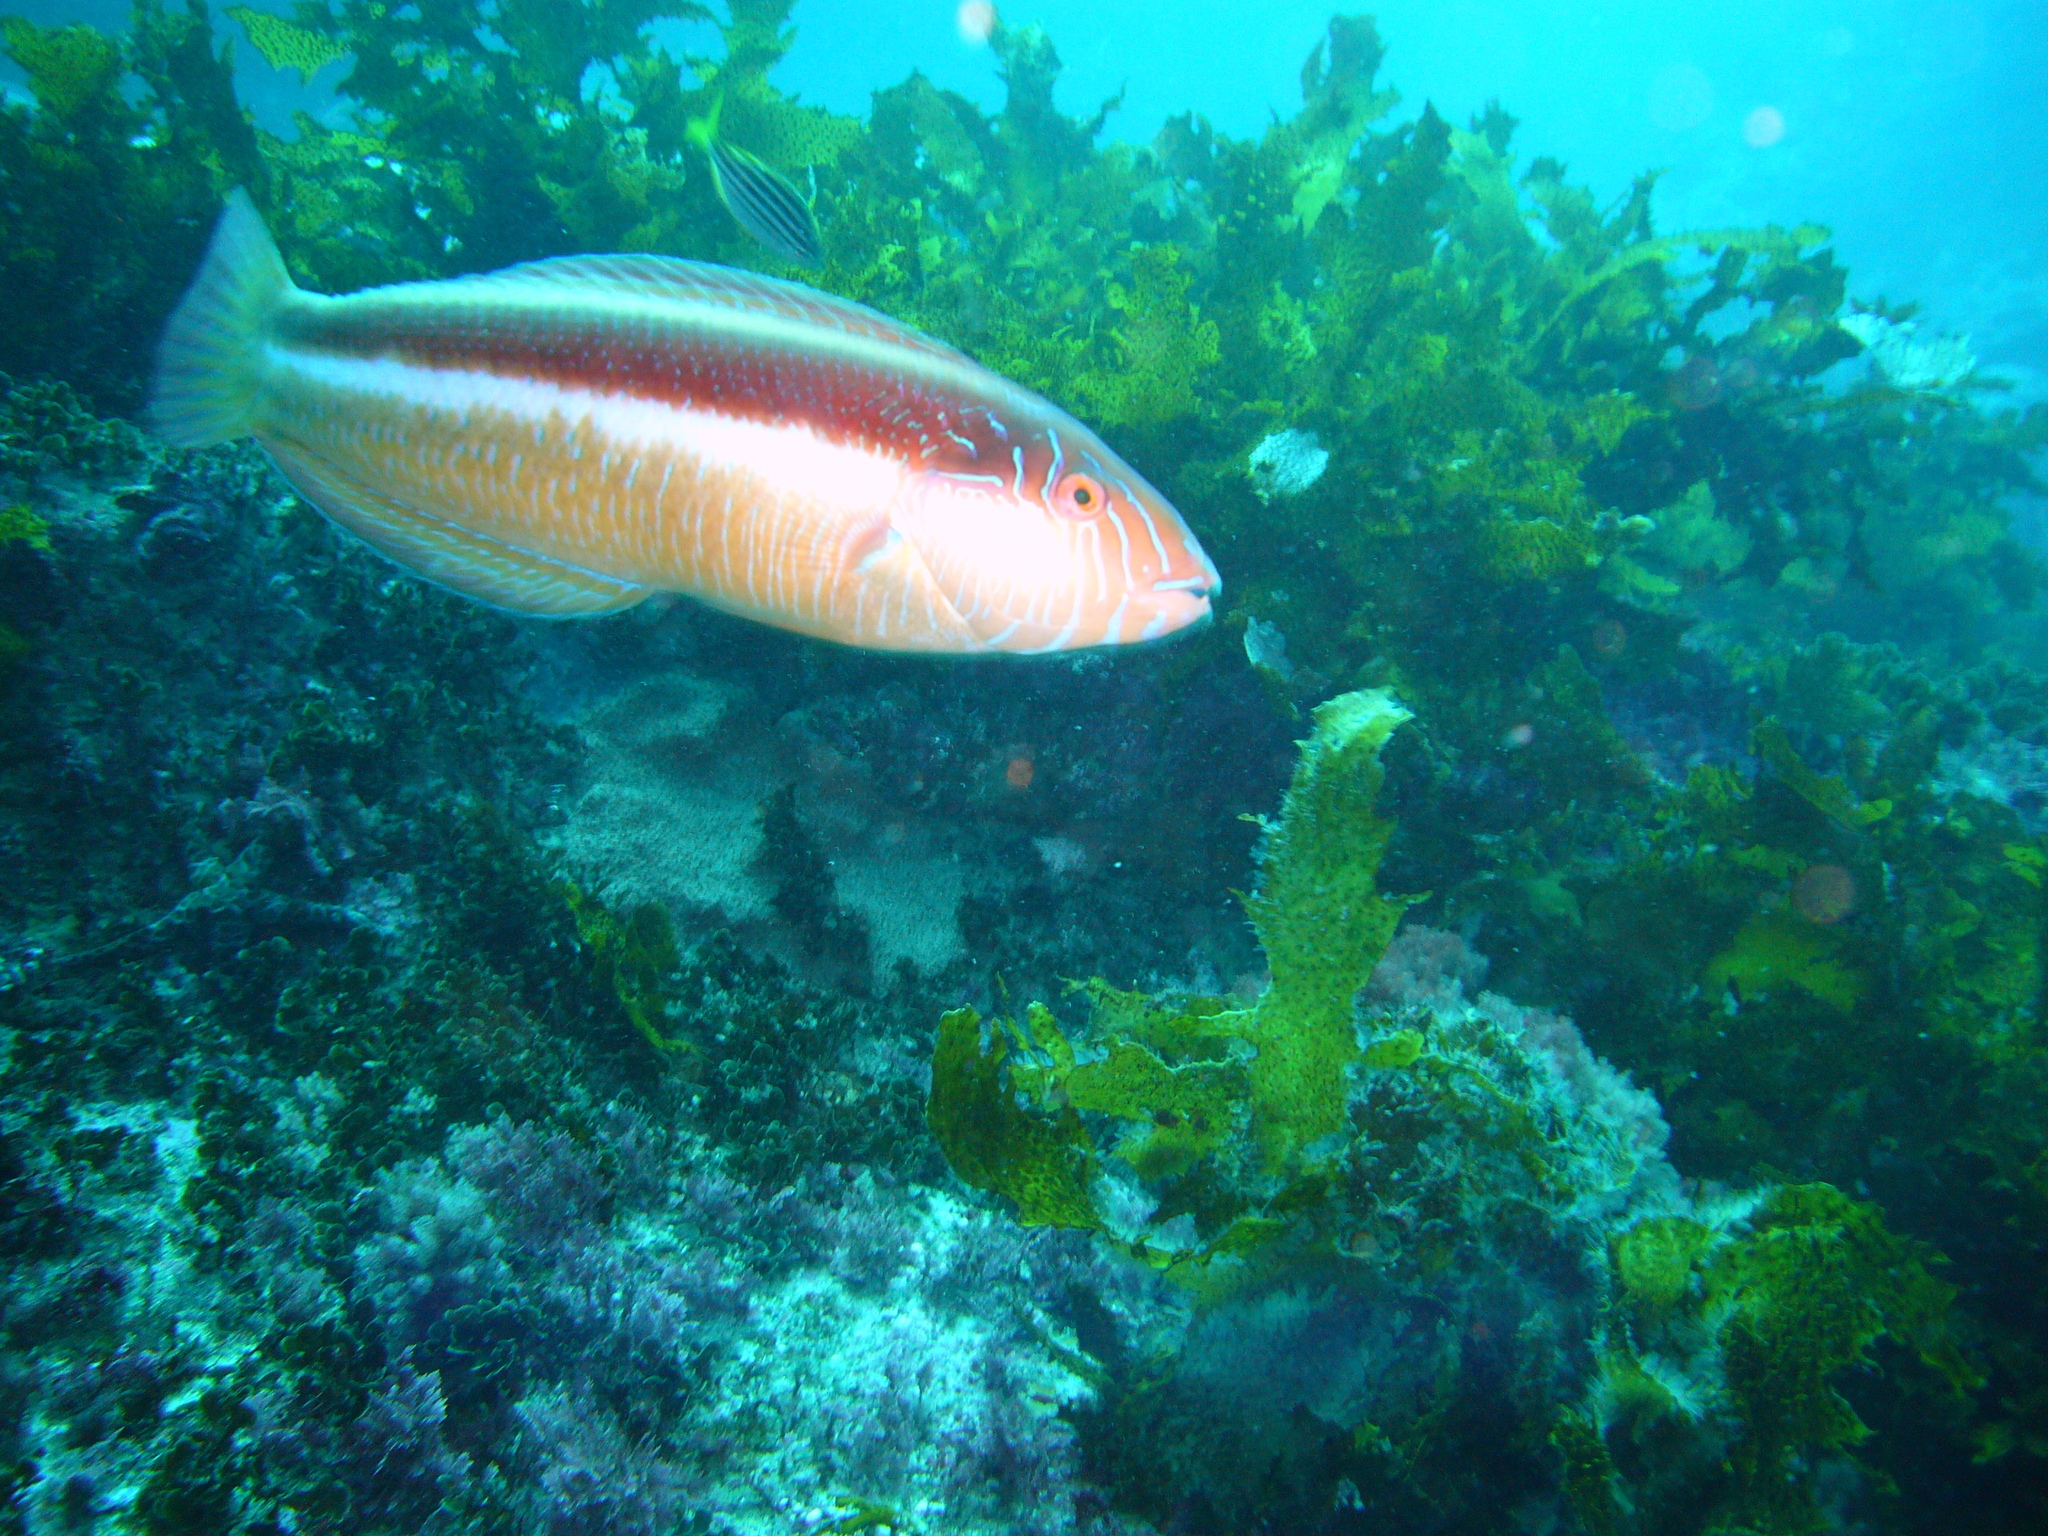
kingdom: Animalia
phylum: Chordata
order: Perciformes
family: Labridae
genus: Ophthalmolepis
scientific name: Ophthalmolepis lineolata
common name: Maori wrasse
